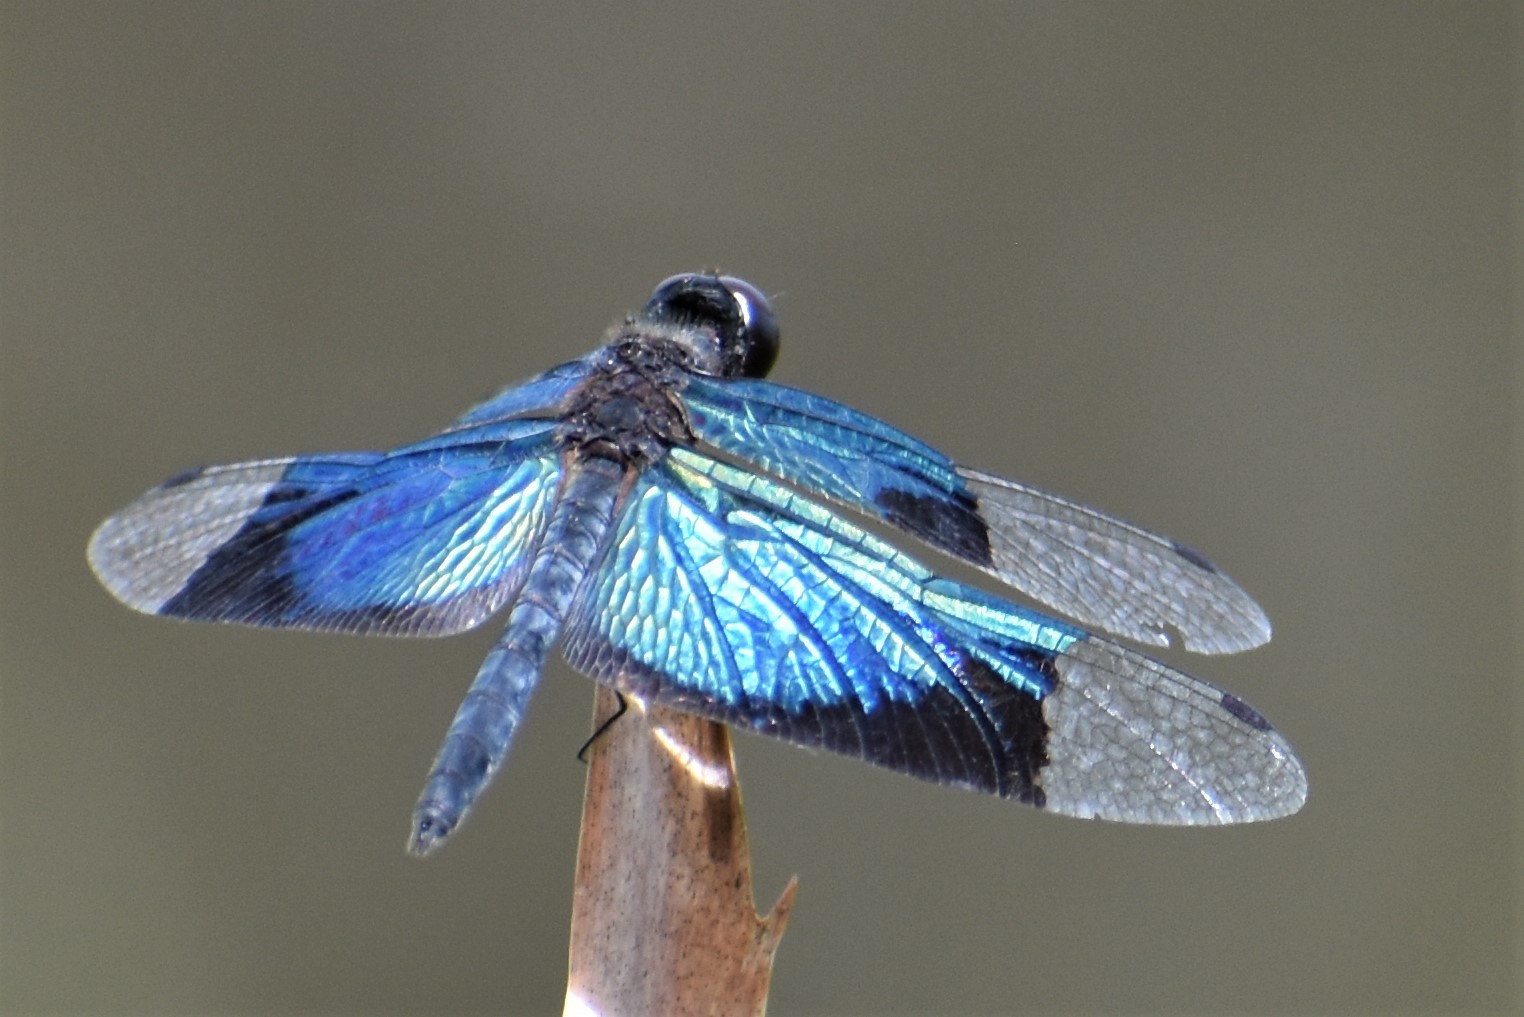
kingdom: Animalia
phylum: Arthropoda
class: Insecta
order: Odonata
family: Libellulidae
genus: Rhyothemis
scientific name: Rhyothemis resplendens
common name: Jewel flutterer
